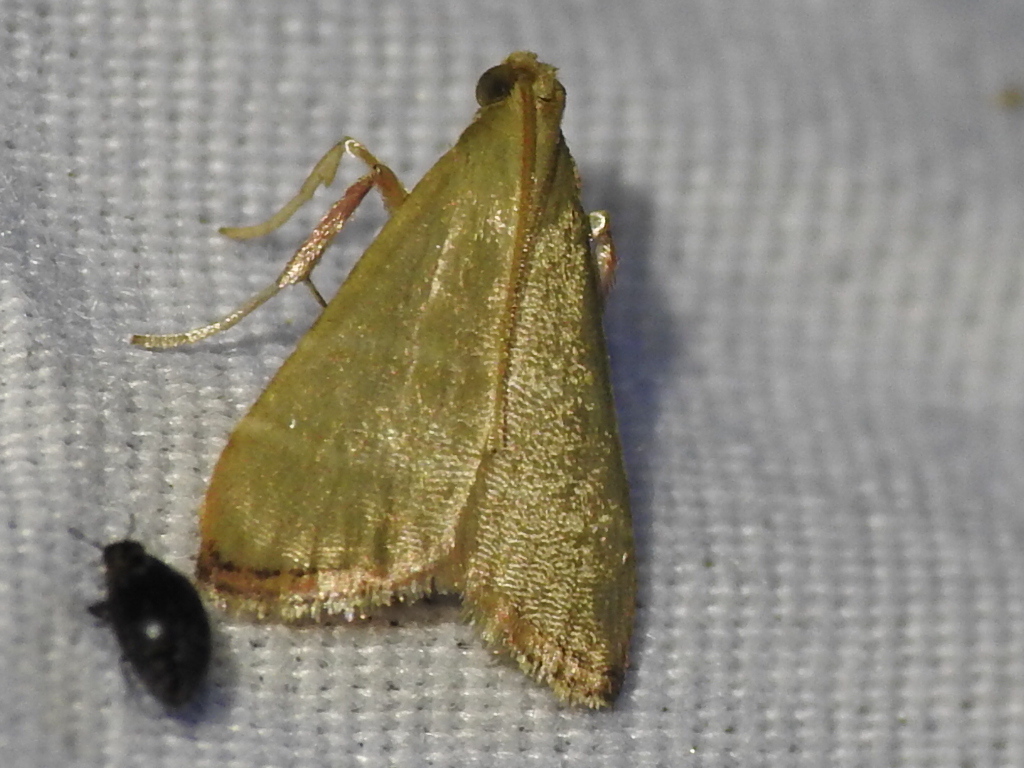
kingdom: Animalia
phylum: Arthropoda
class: Insecta
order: Lepidoptera
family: Pyralidae
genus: Arta
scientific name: Arta olivalis
